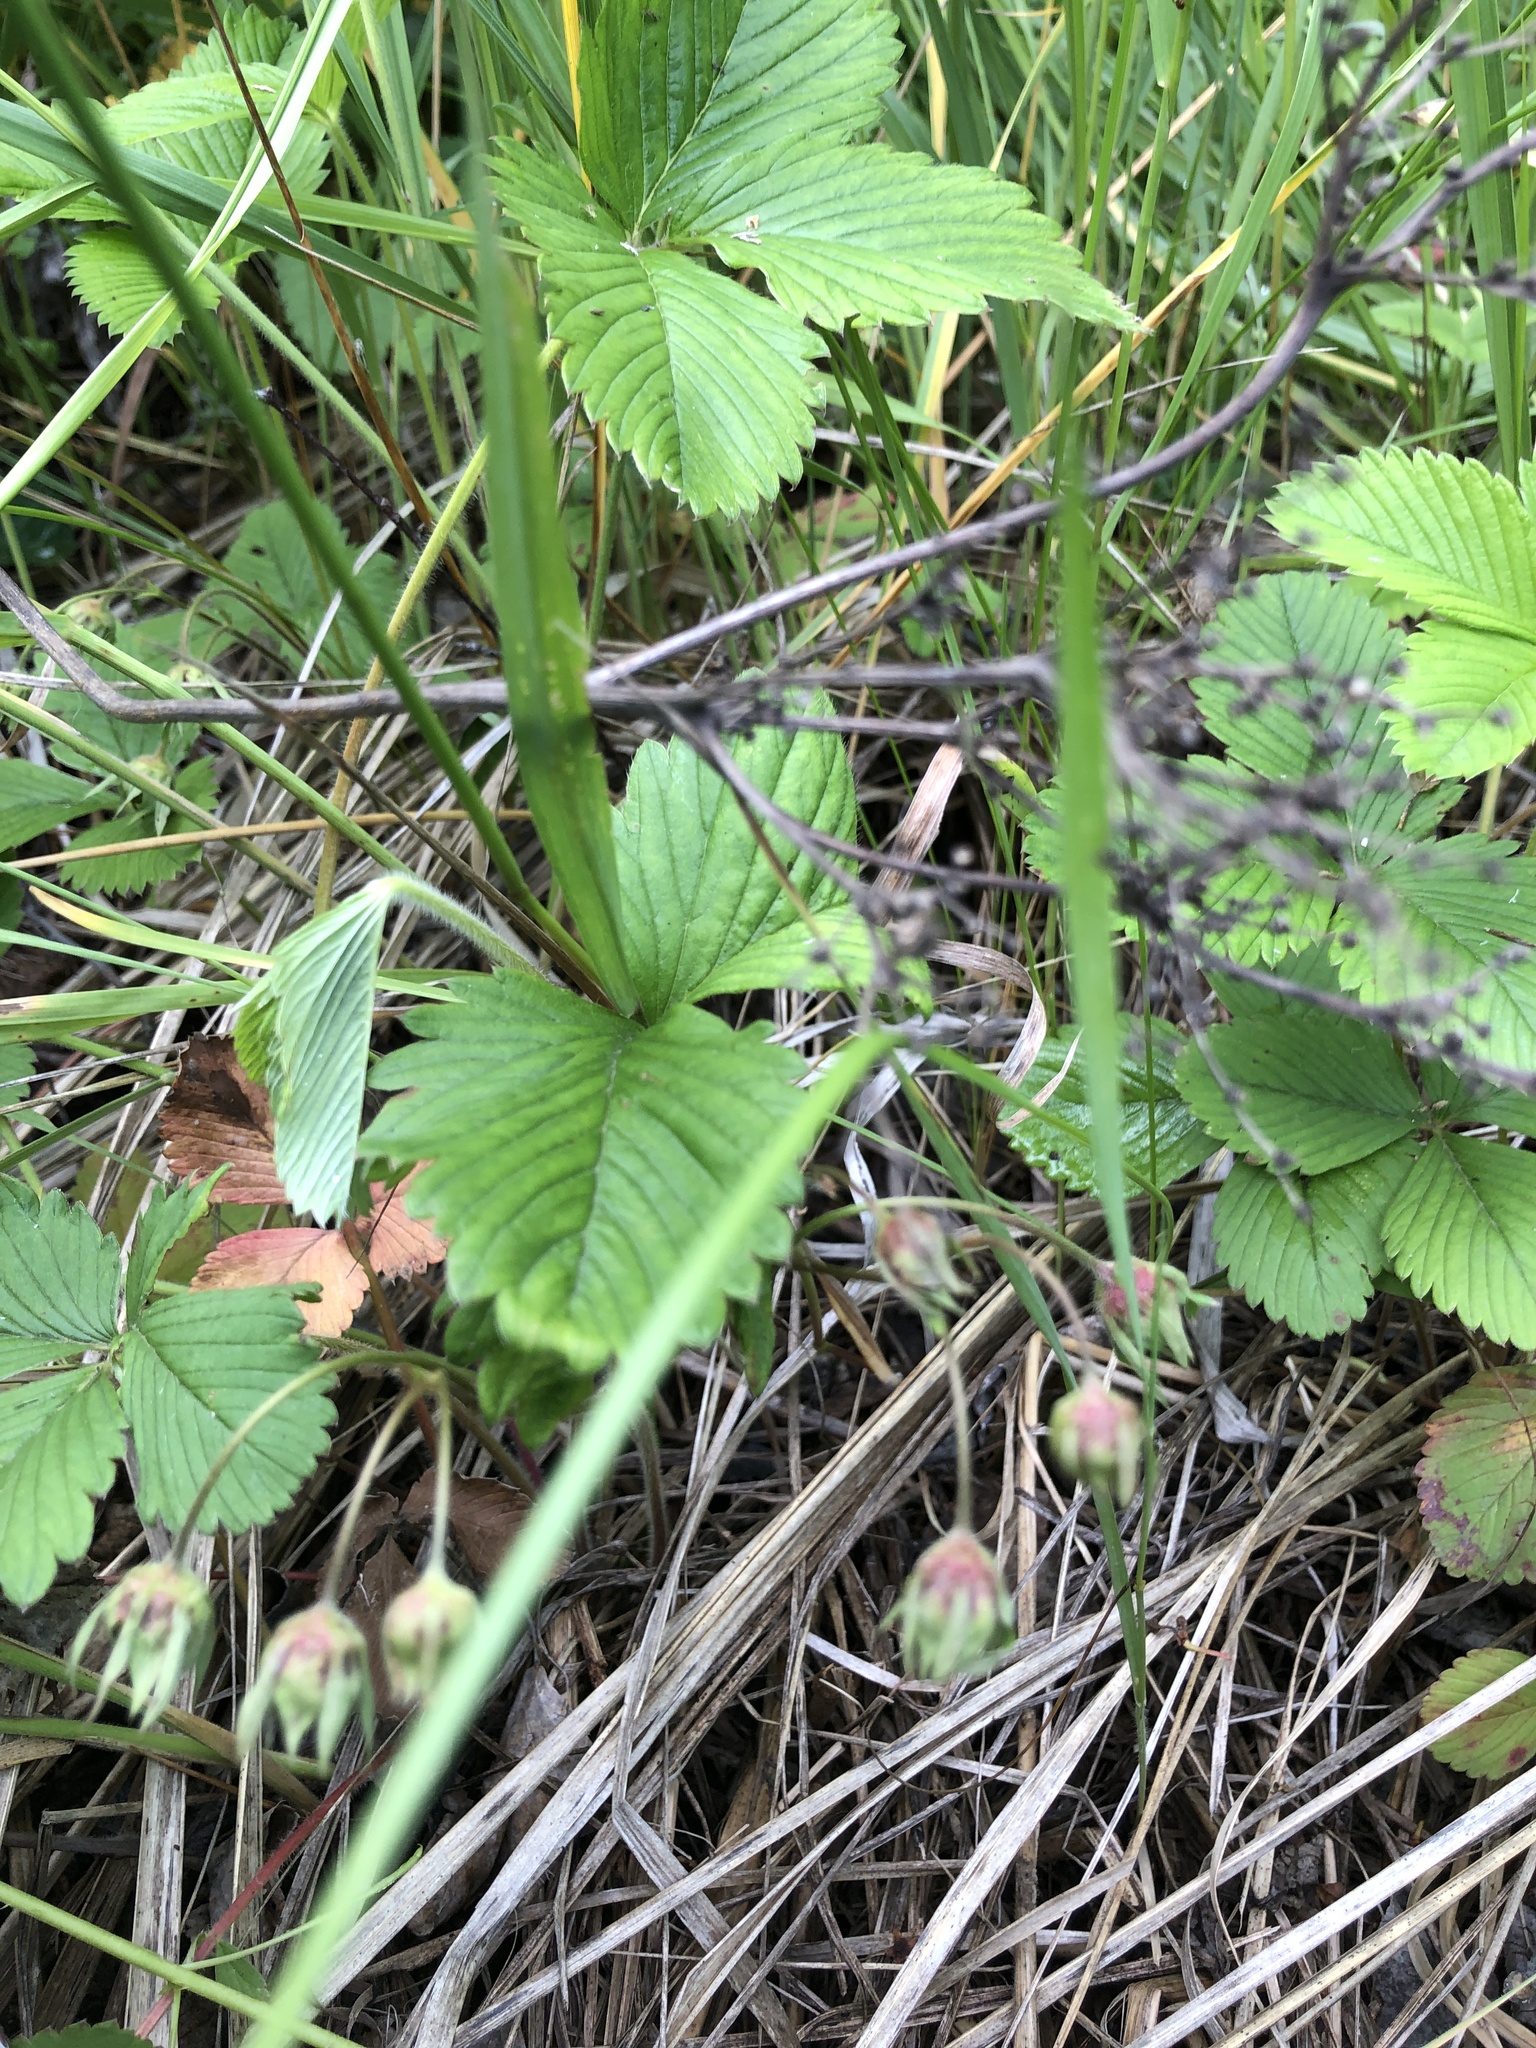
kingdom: Plantae
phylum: Tracheophyta
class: Magnoliopsida
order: Rosales
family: Rosaceae
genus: Fragaria
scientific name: Fragaria viridis
